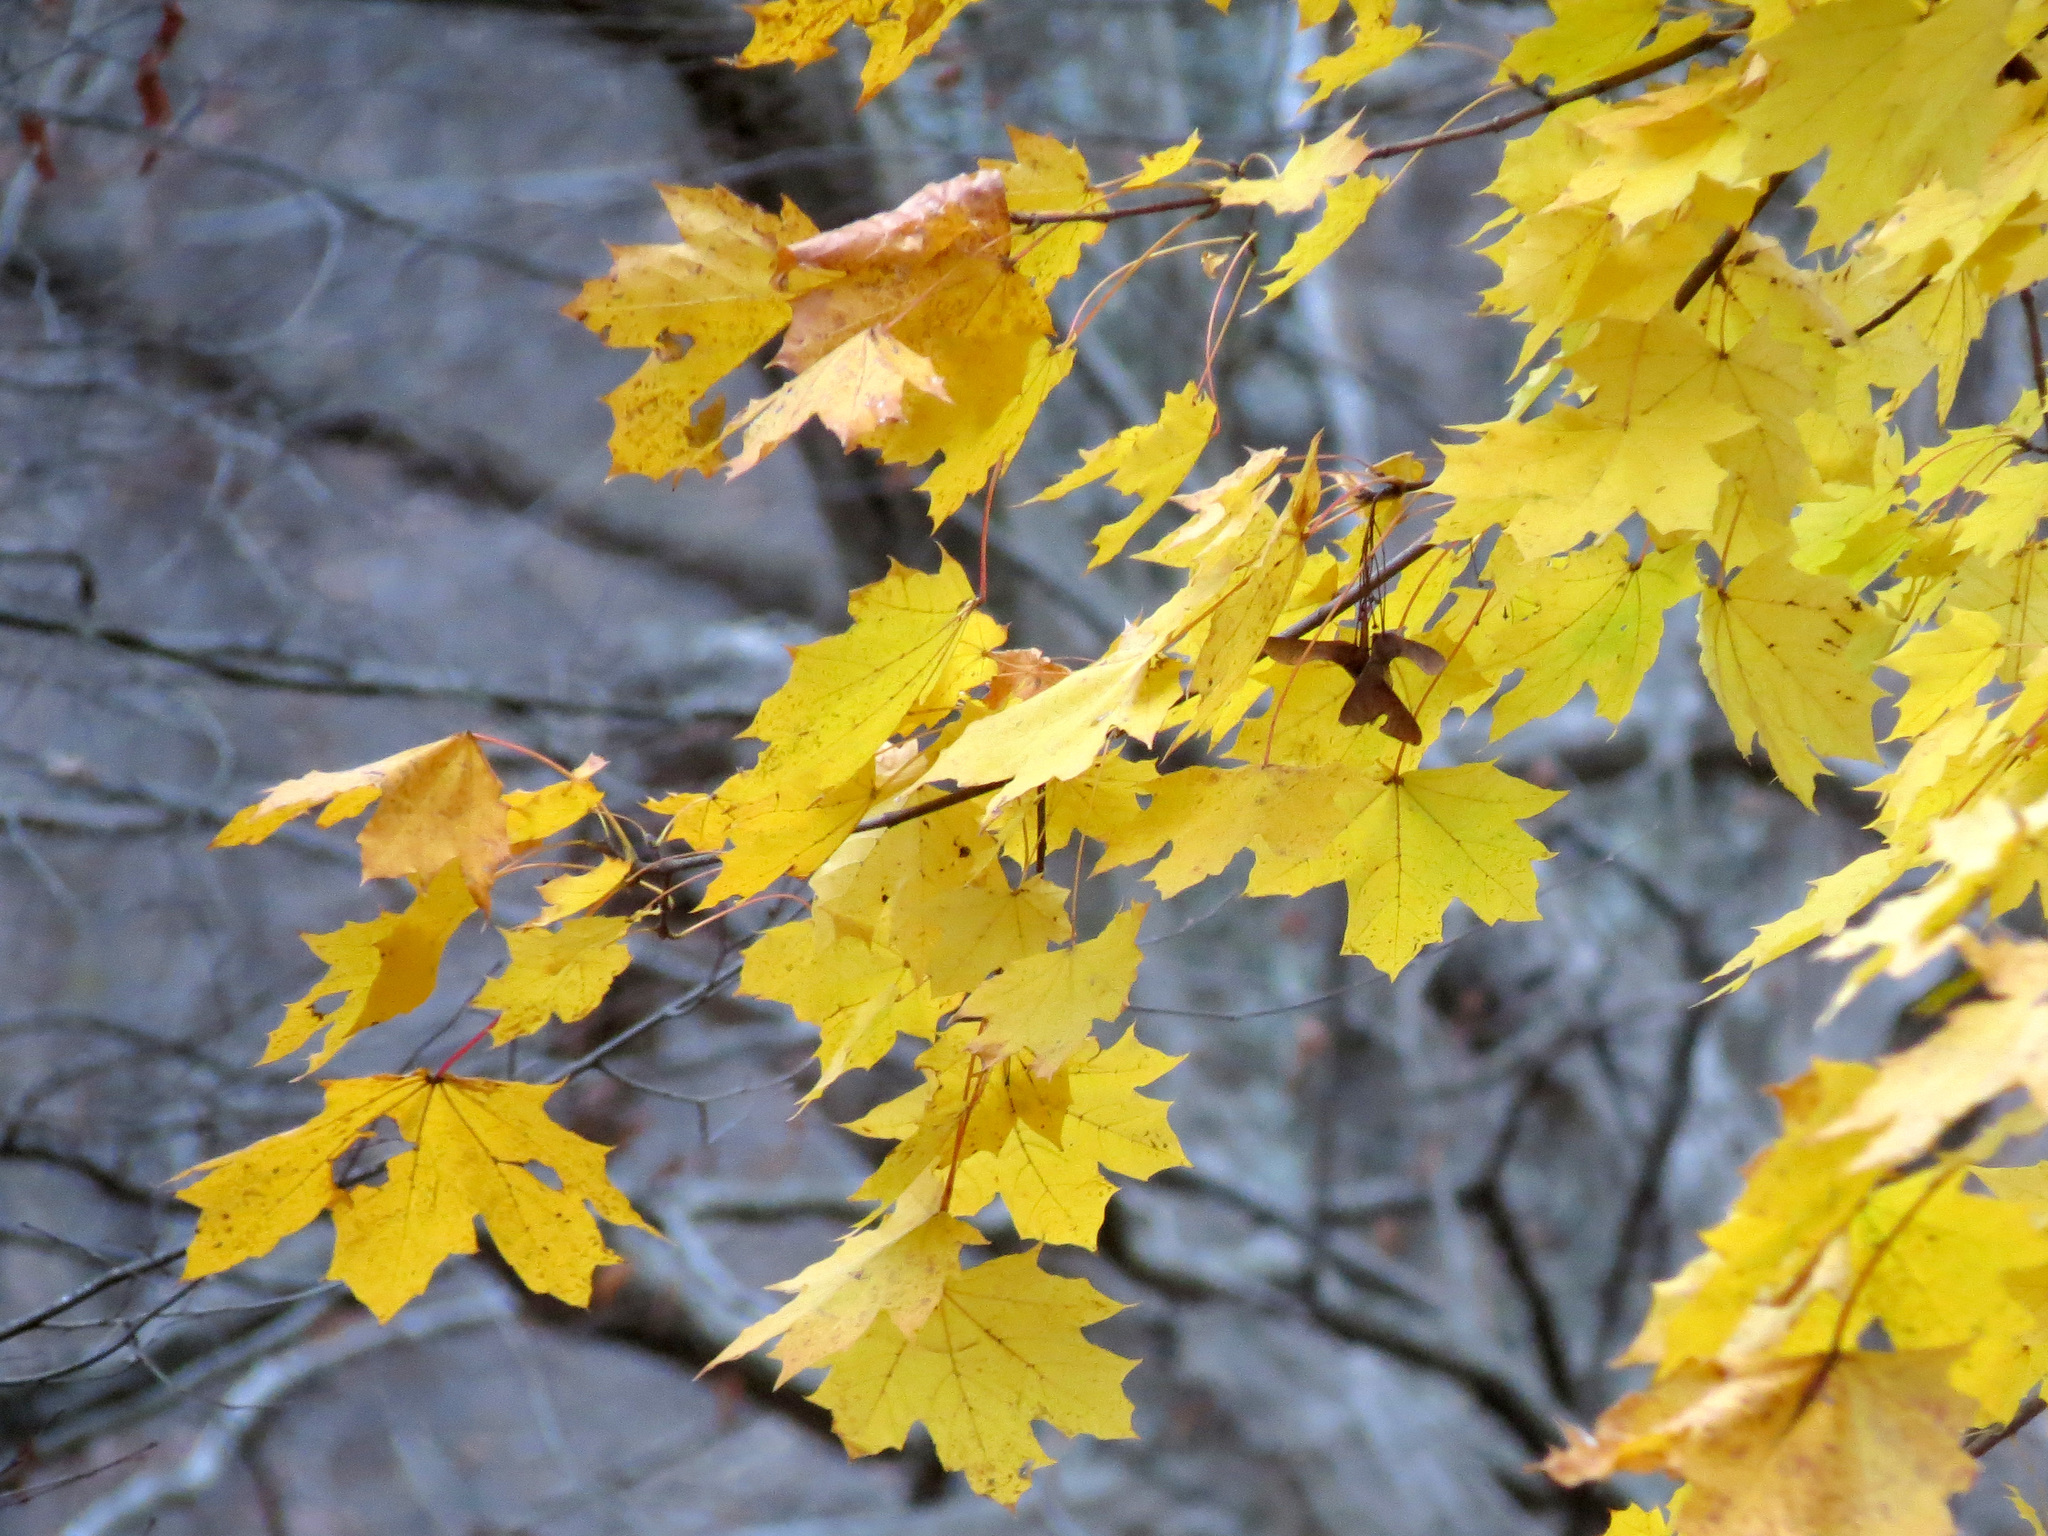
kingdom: Plantae
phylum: Tracheophyta
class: Magnoliopsida
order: Sapindales
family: Sapindaceae
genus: Acer
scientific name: Acer platanoides
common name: Norway maple
